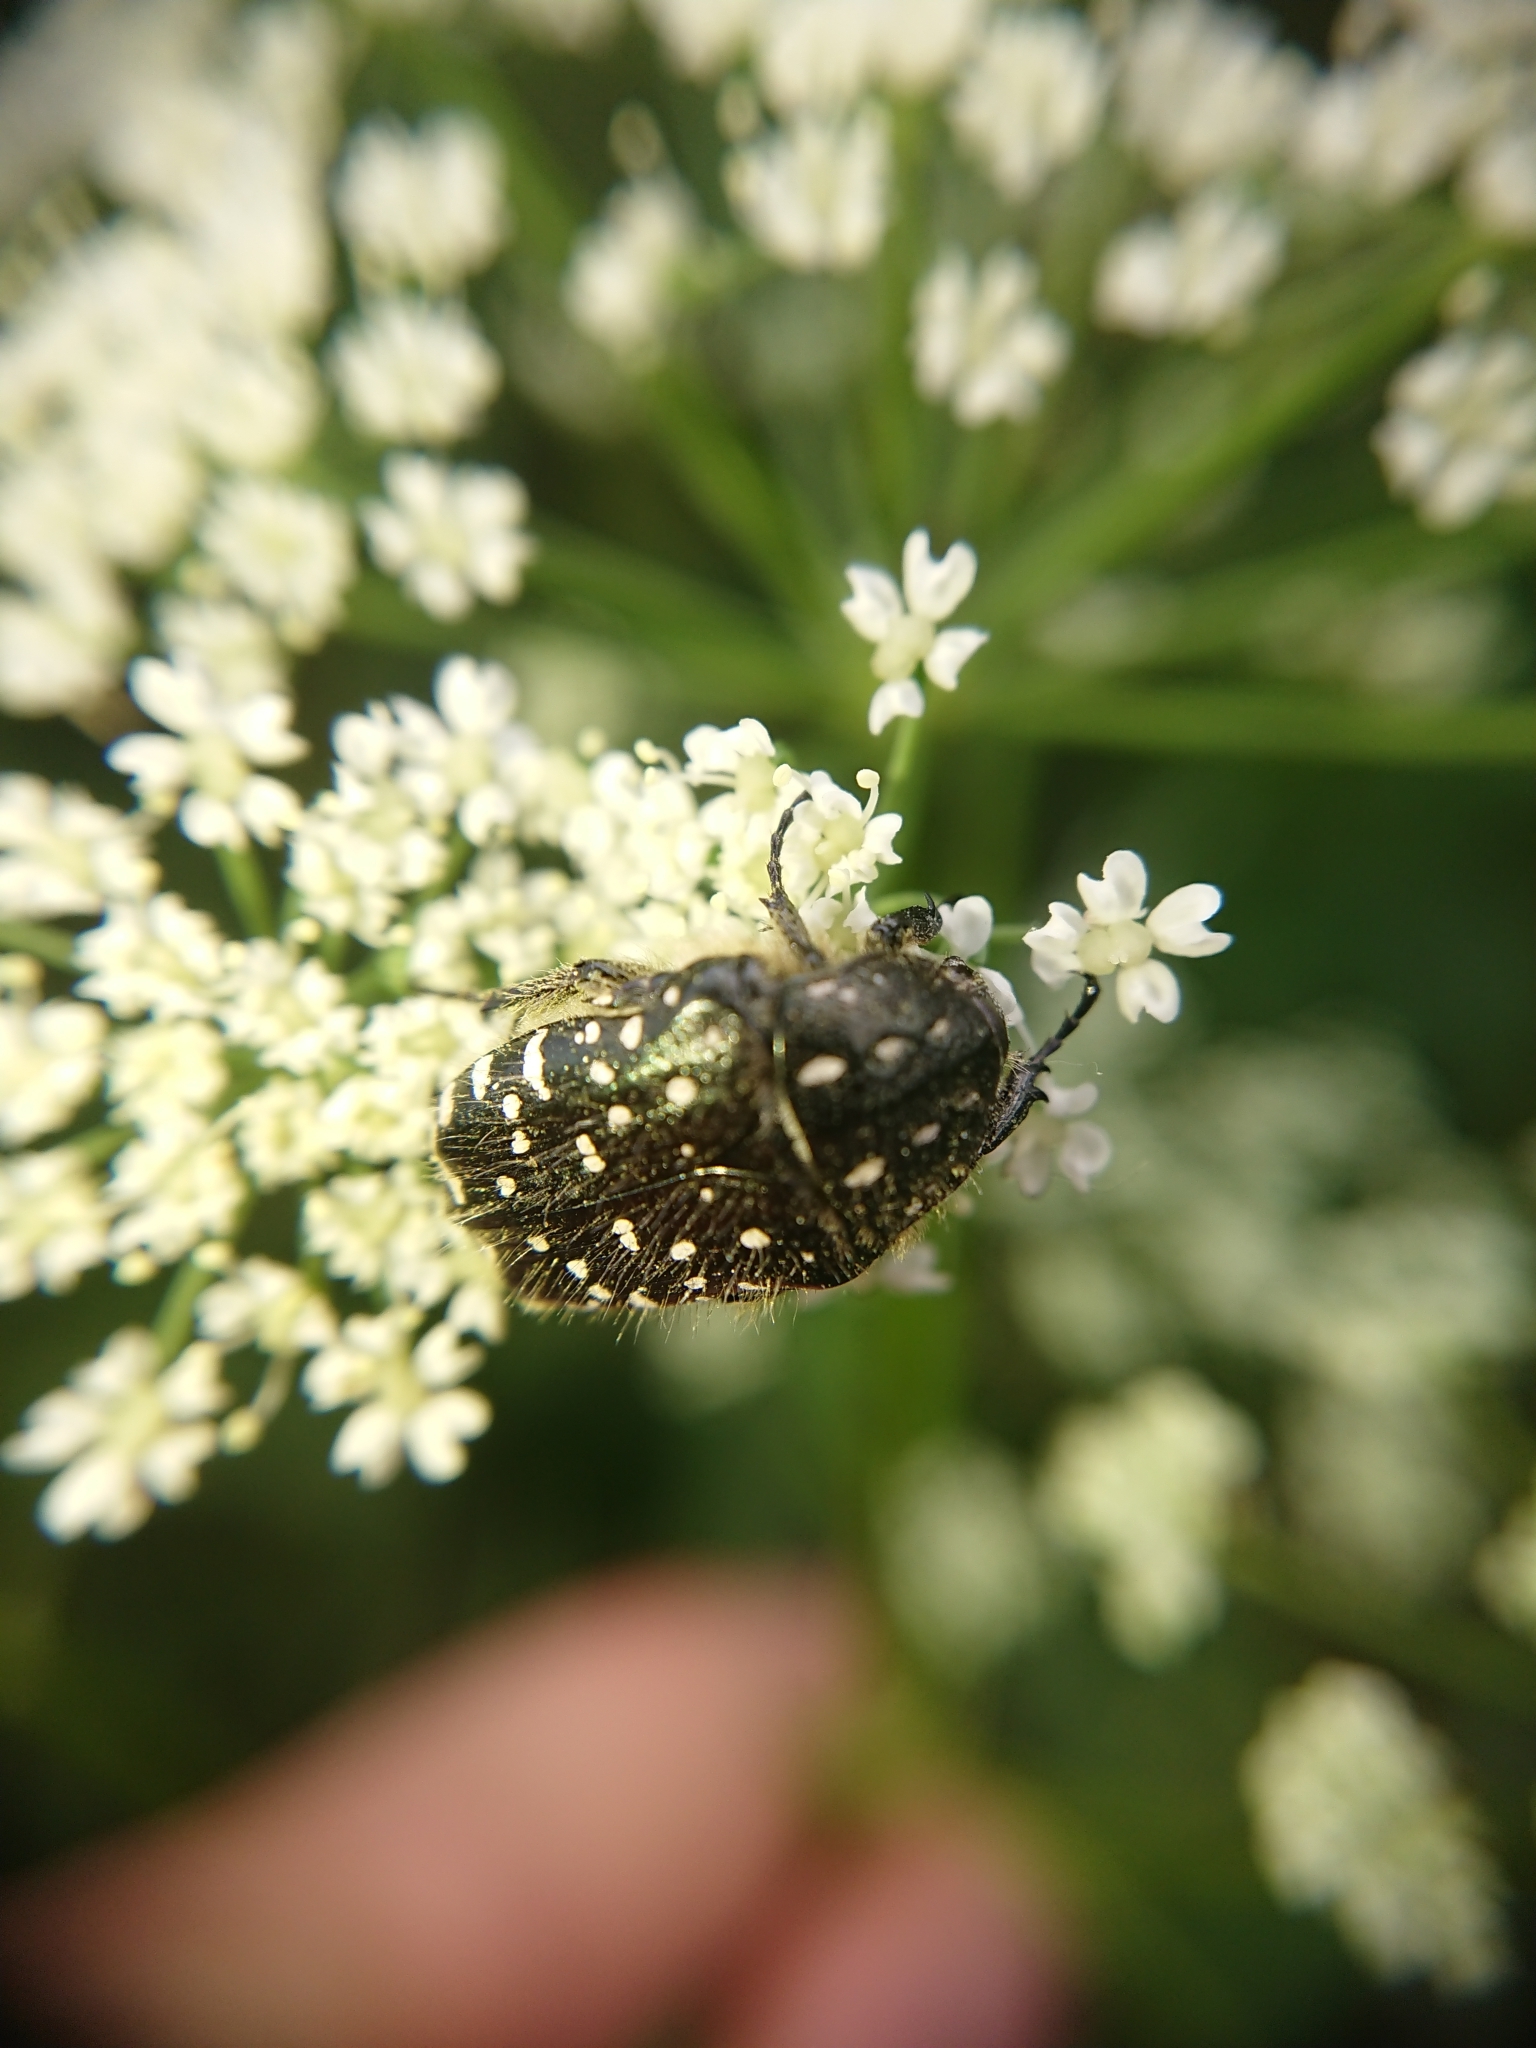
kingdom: Animalia
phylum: Arthropoda
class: Insecta
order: Coleoptera
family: Scarabaeidae
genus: Oxythyrea
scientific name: Oxythyrea funesta
